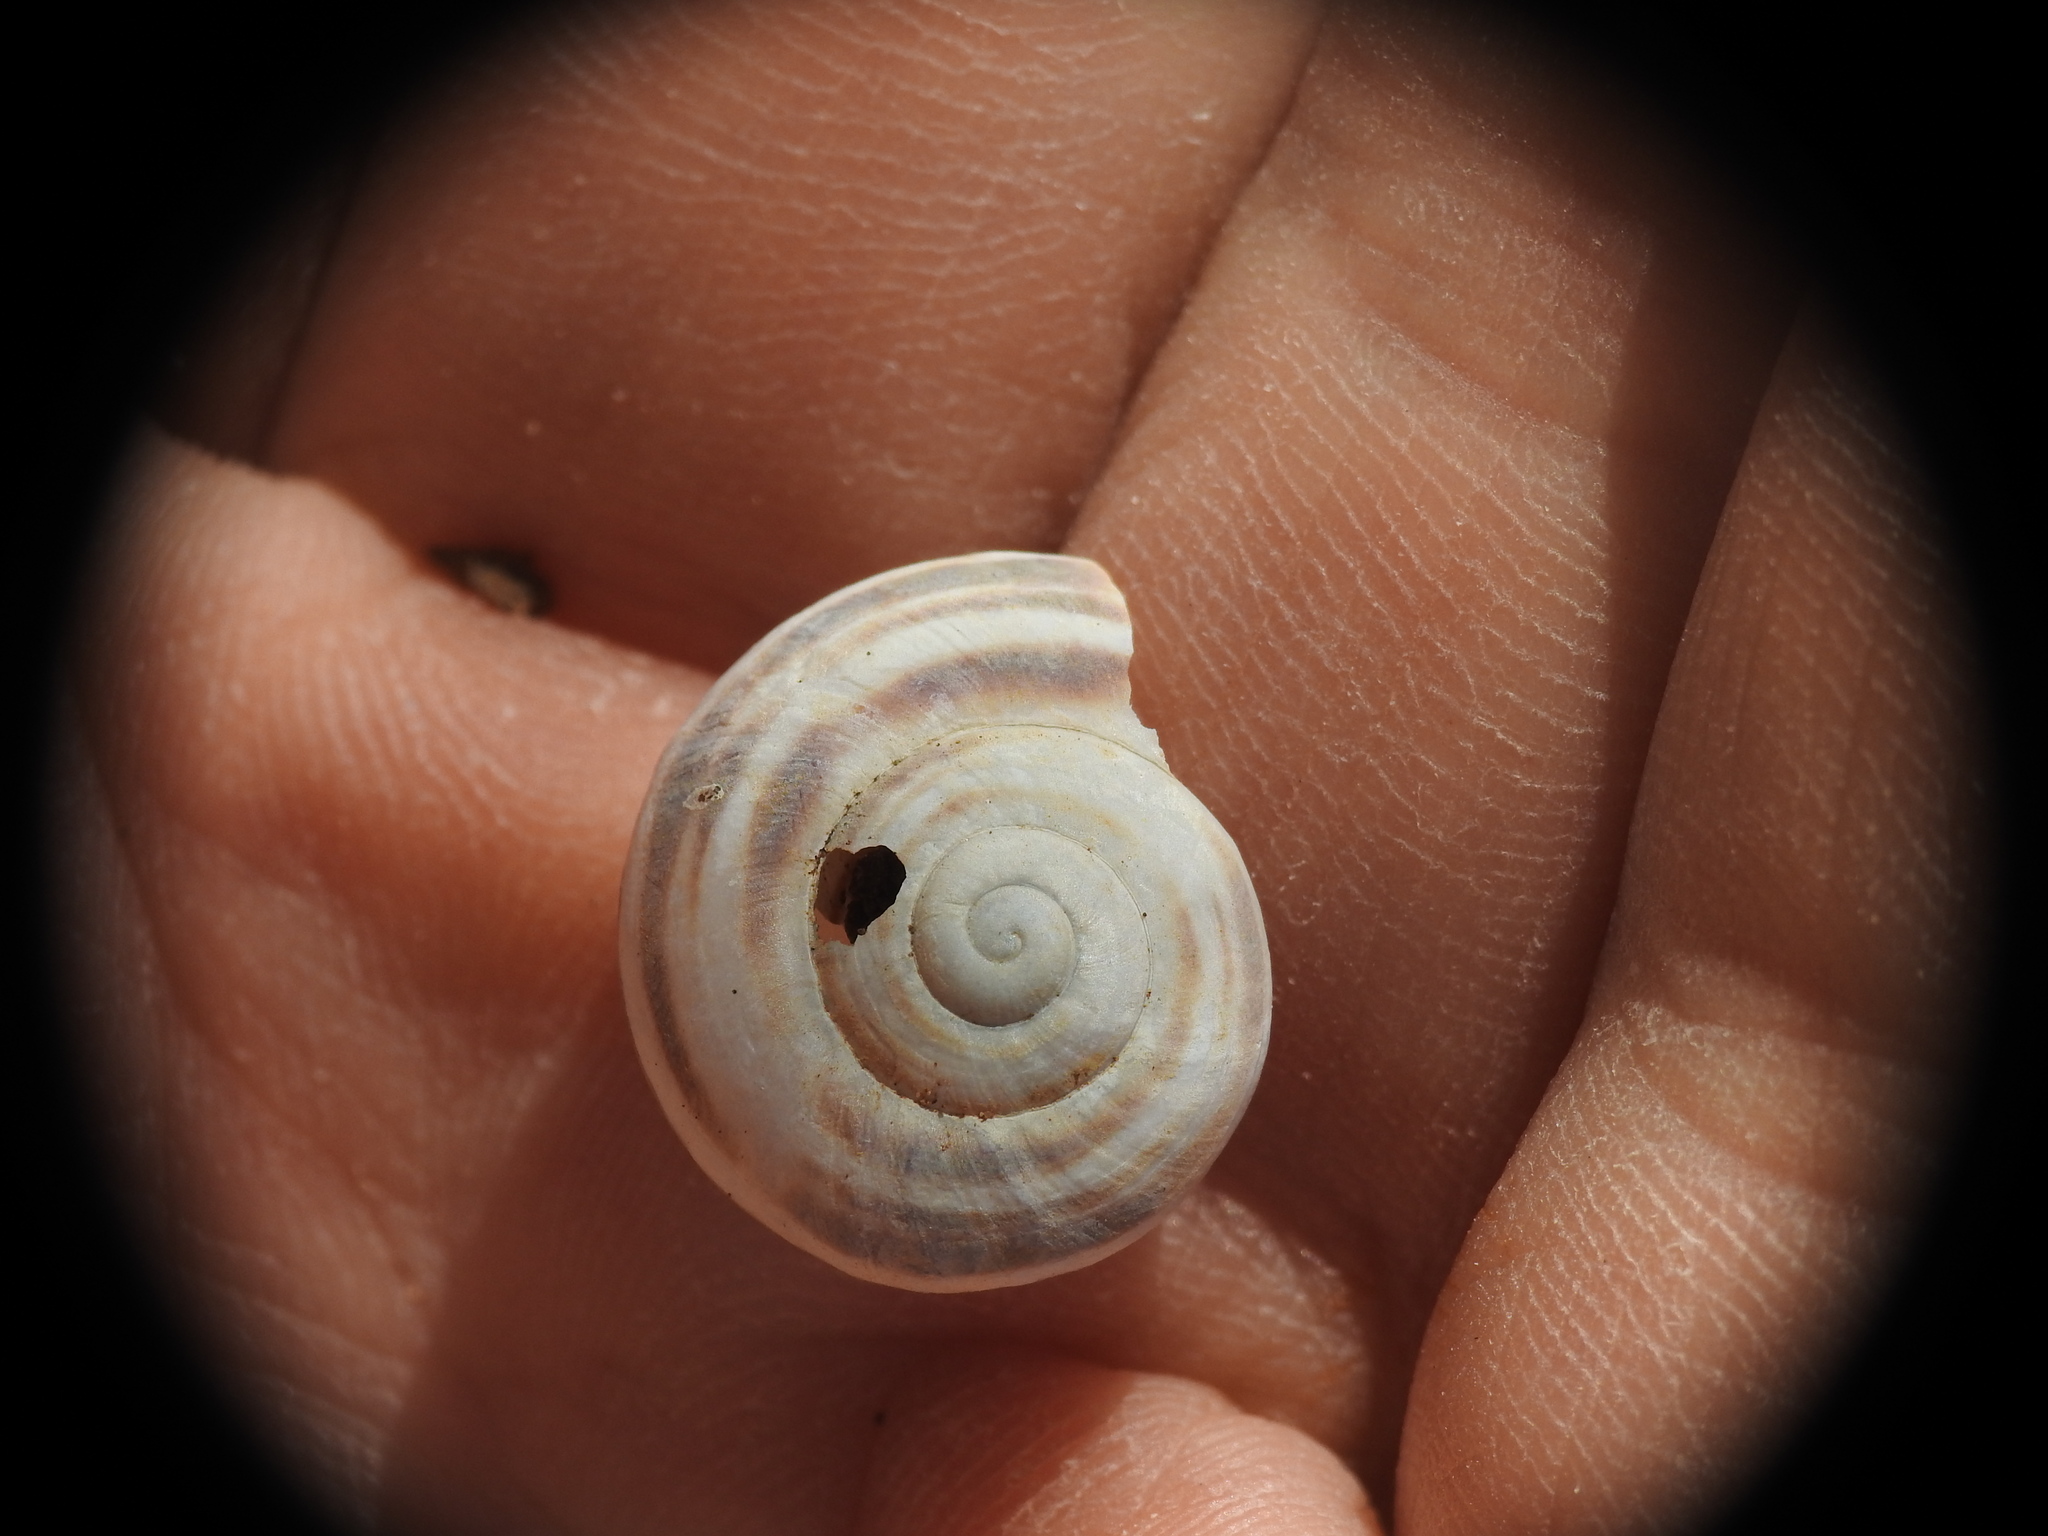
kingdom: Animalia
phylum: Mollusca
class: Gastropoda
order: Stylommatophora
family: Helicidae
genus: Eobania
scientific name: Eobania vermiculata
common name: Chocolateband snail
